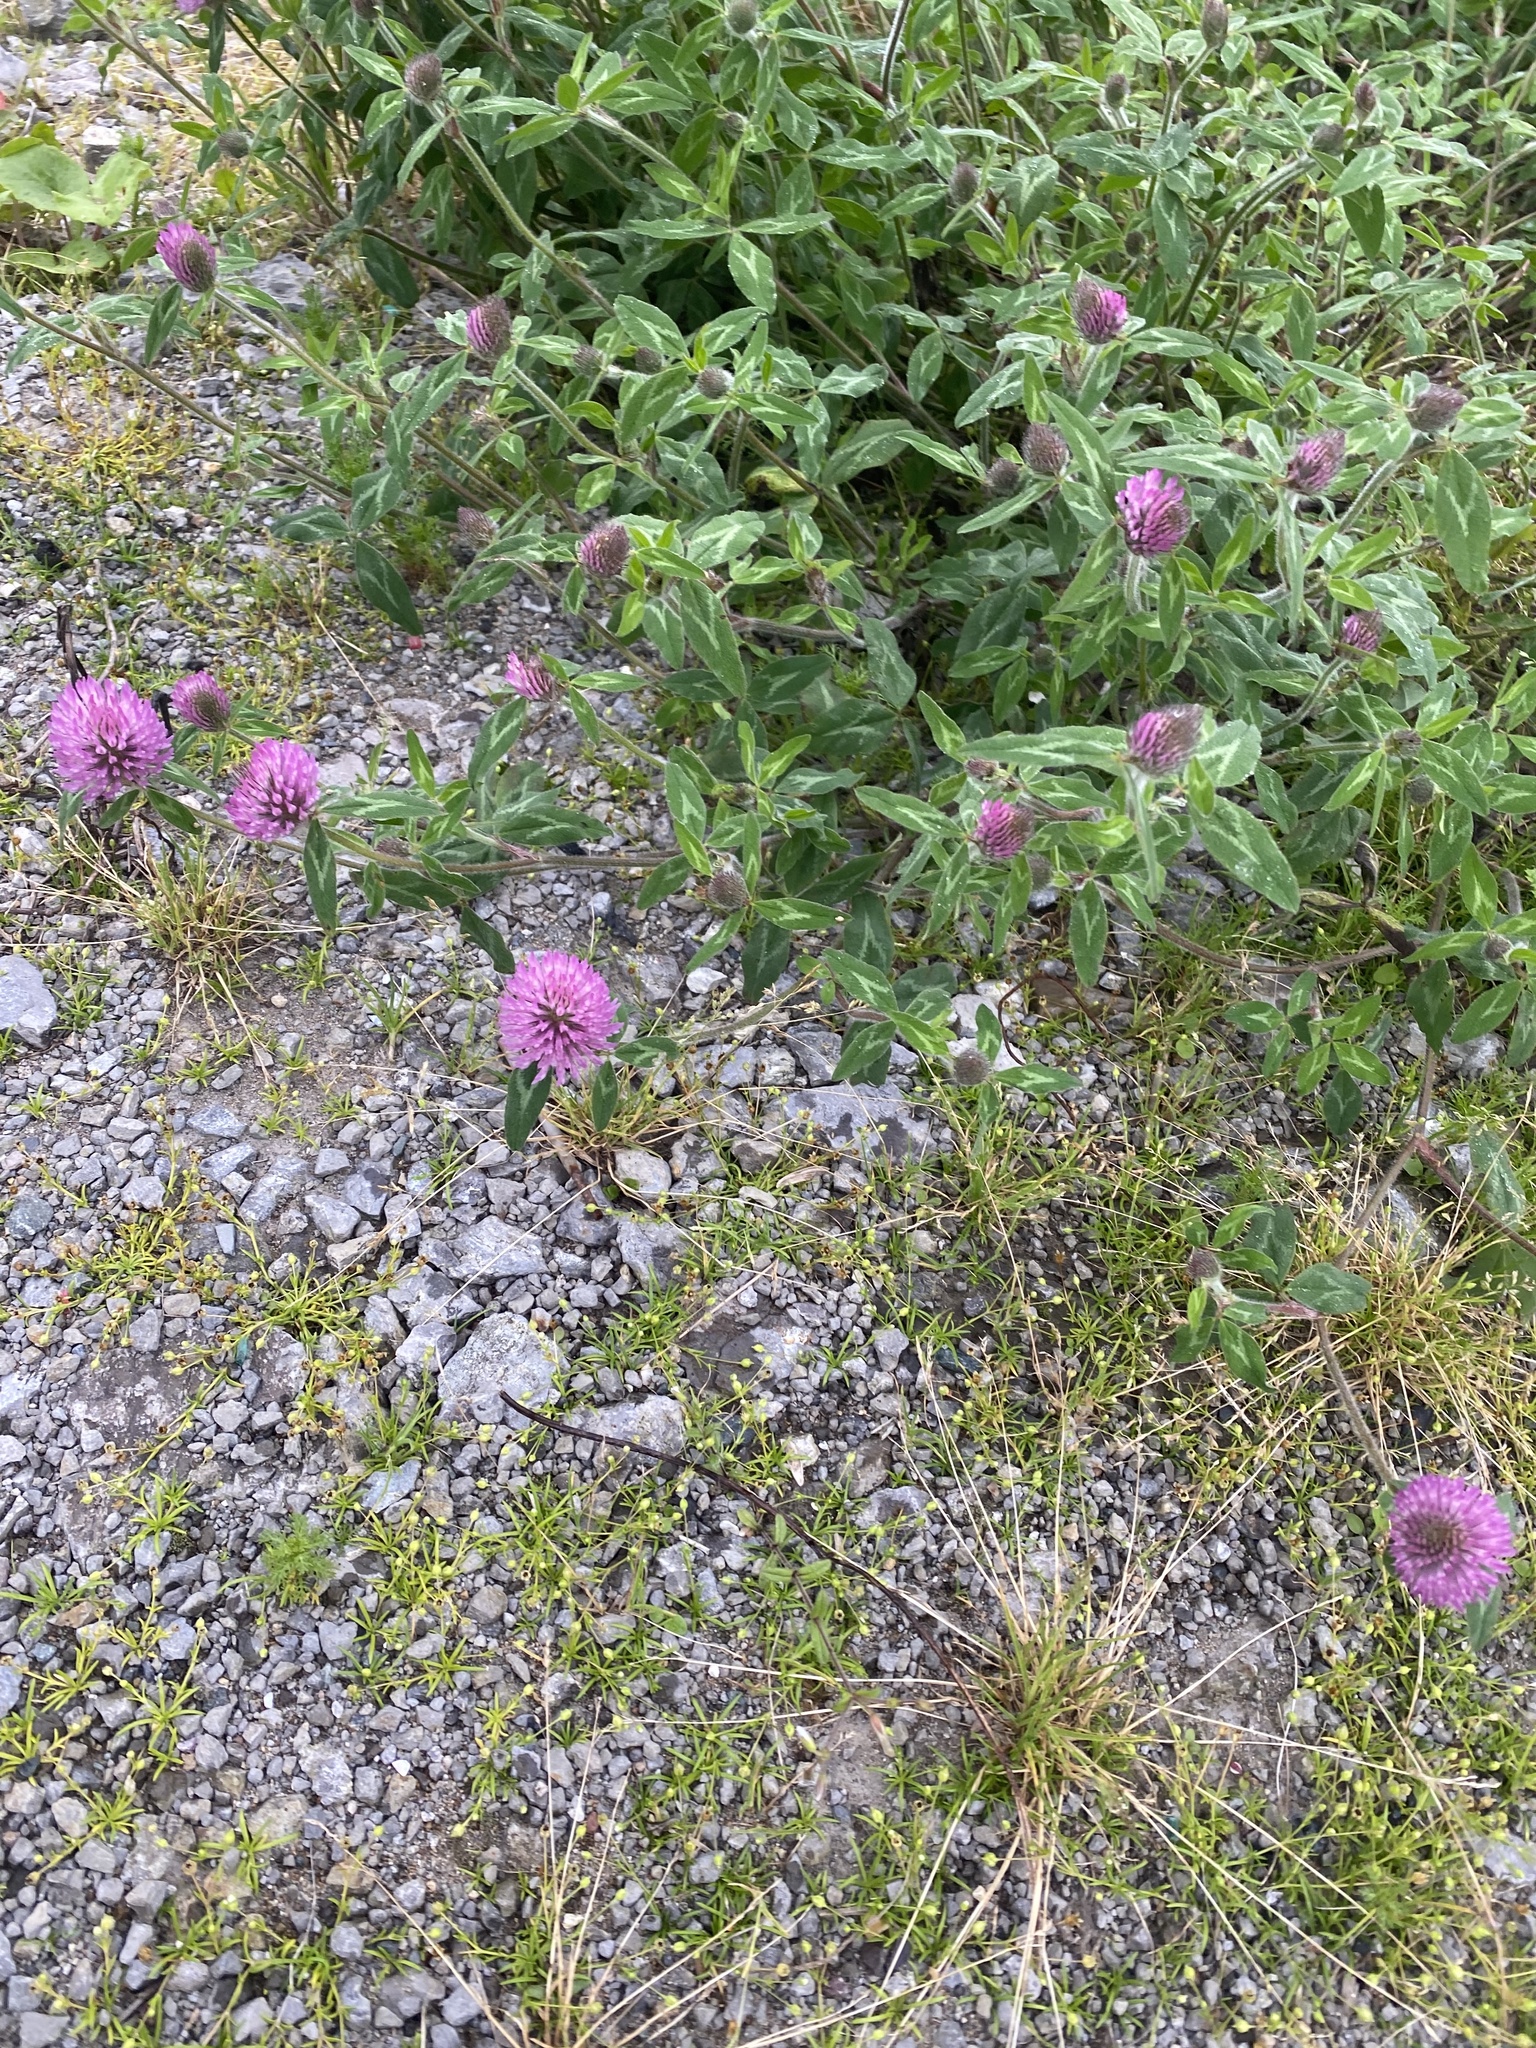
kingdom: Plantae
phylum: Tracheophyta
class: Magnoliopsida
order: Fabales
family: Fabaceae
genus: Trifolium
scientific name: Trifolium pratense
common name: Red clover
